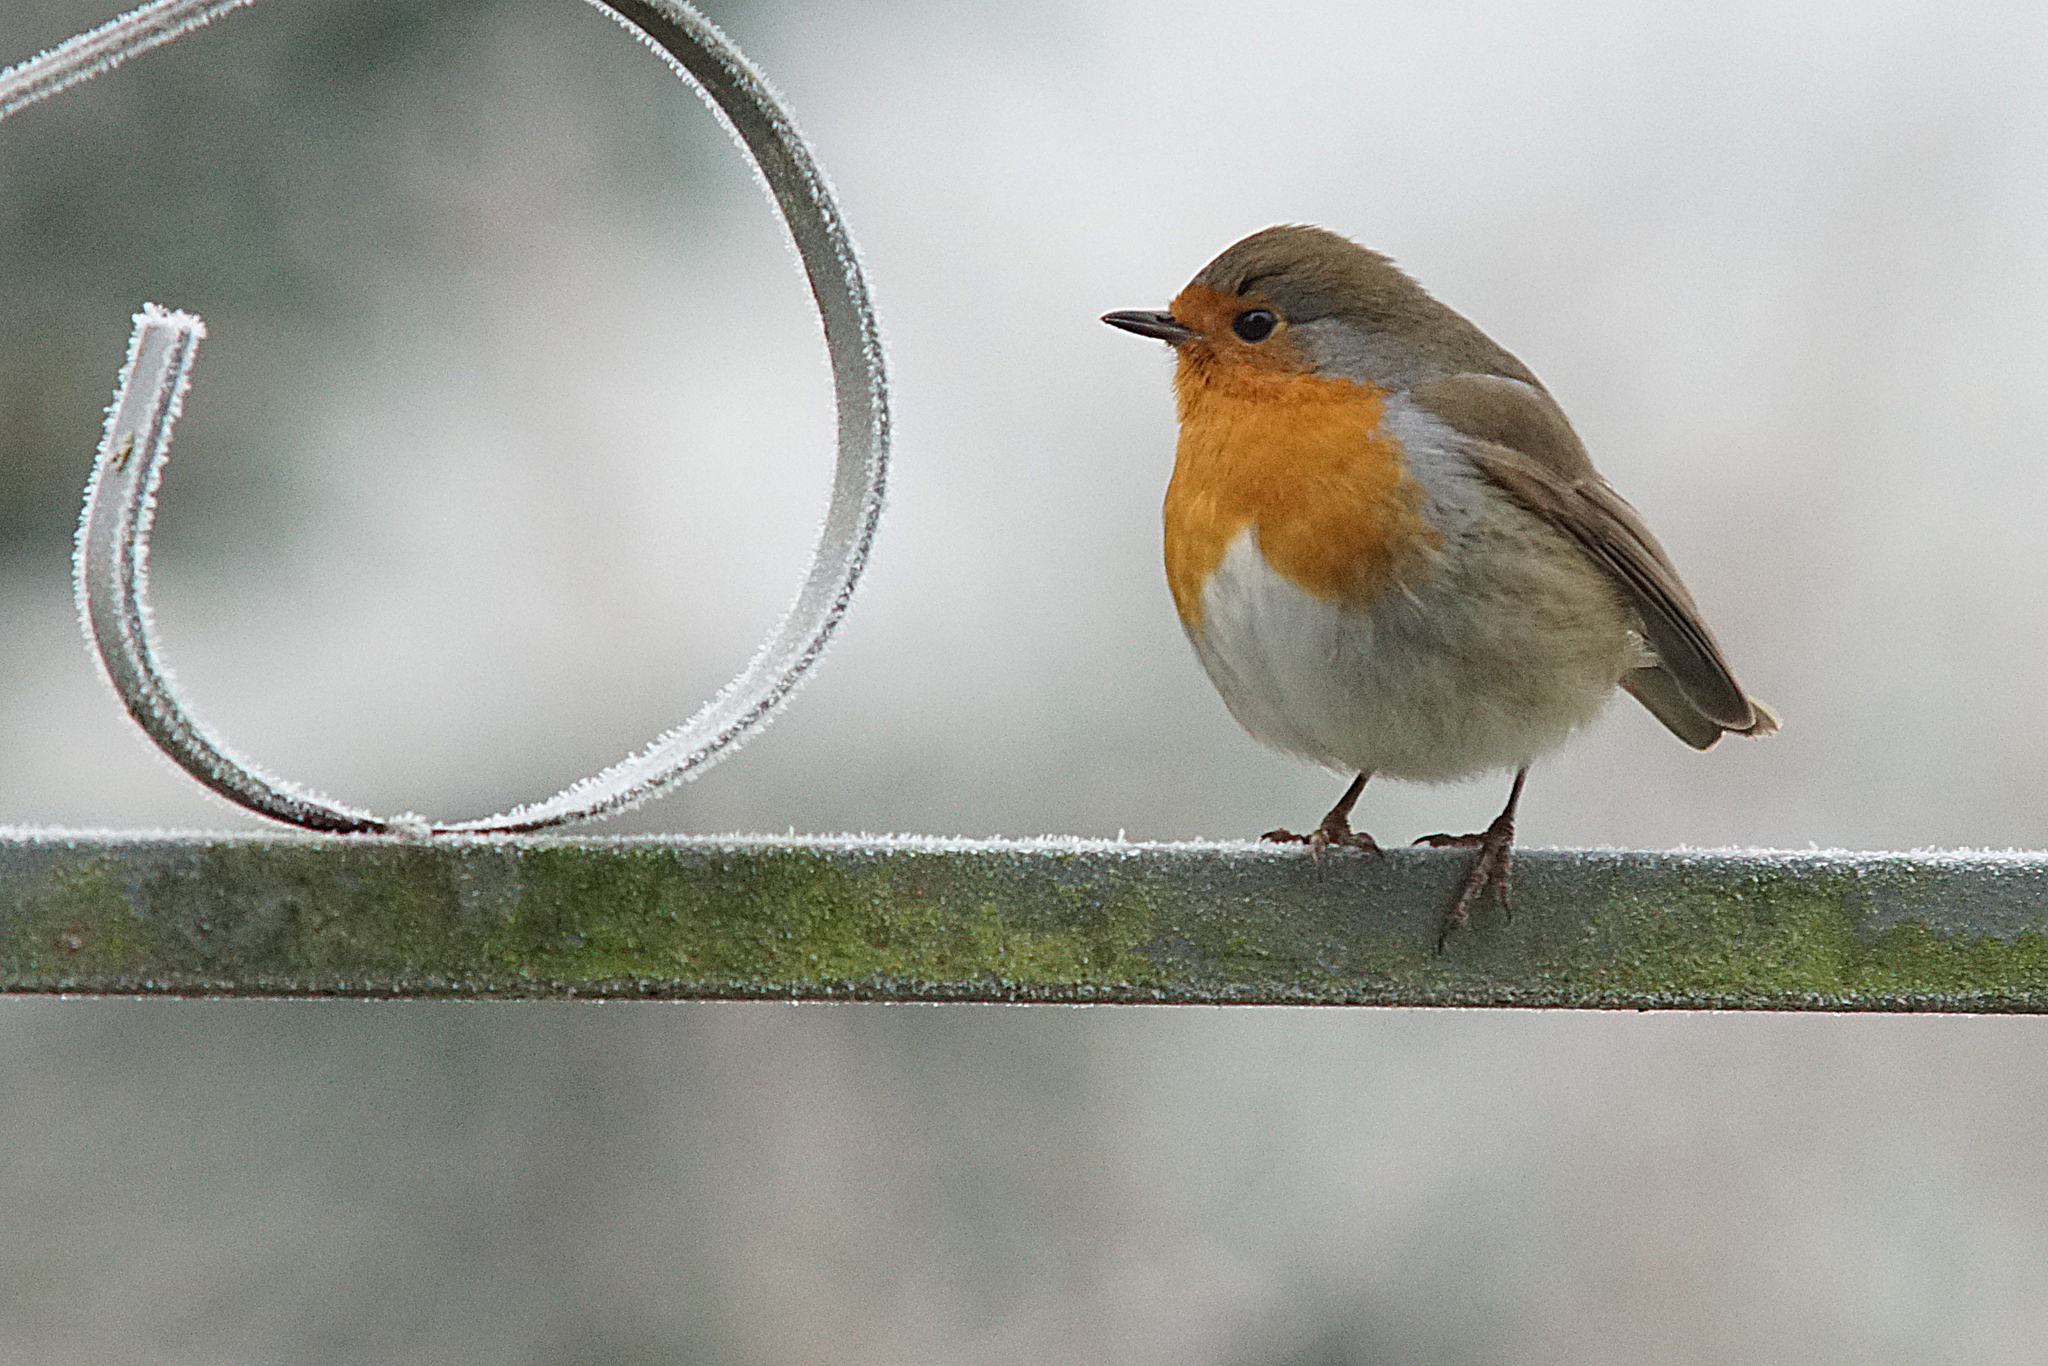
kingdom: Animalia
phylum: Chordata
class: Aves
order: Passeriformes
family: Muscicapidae
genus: Erithacus
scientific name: Erithacus rubecula
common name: European robin
